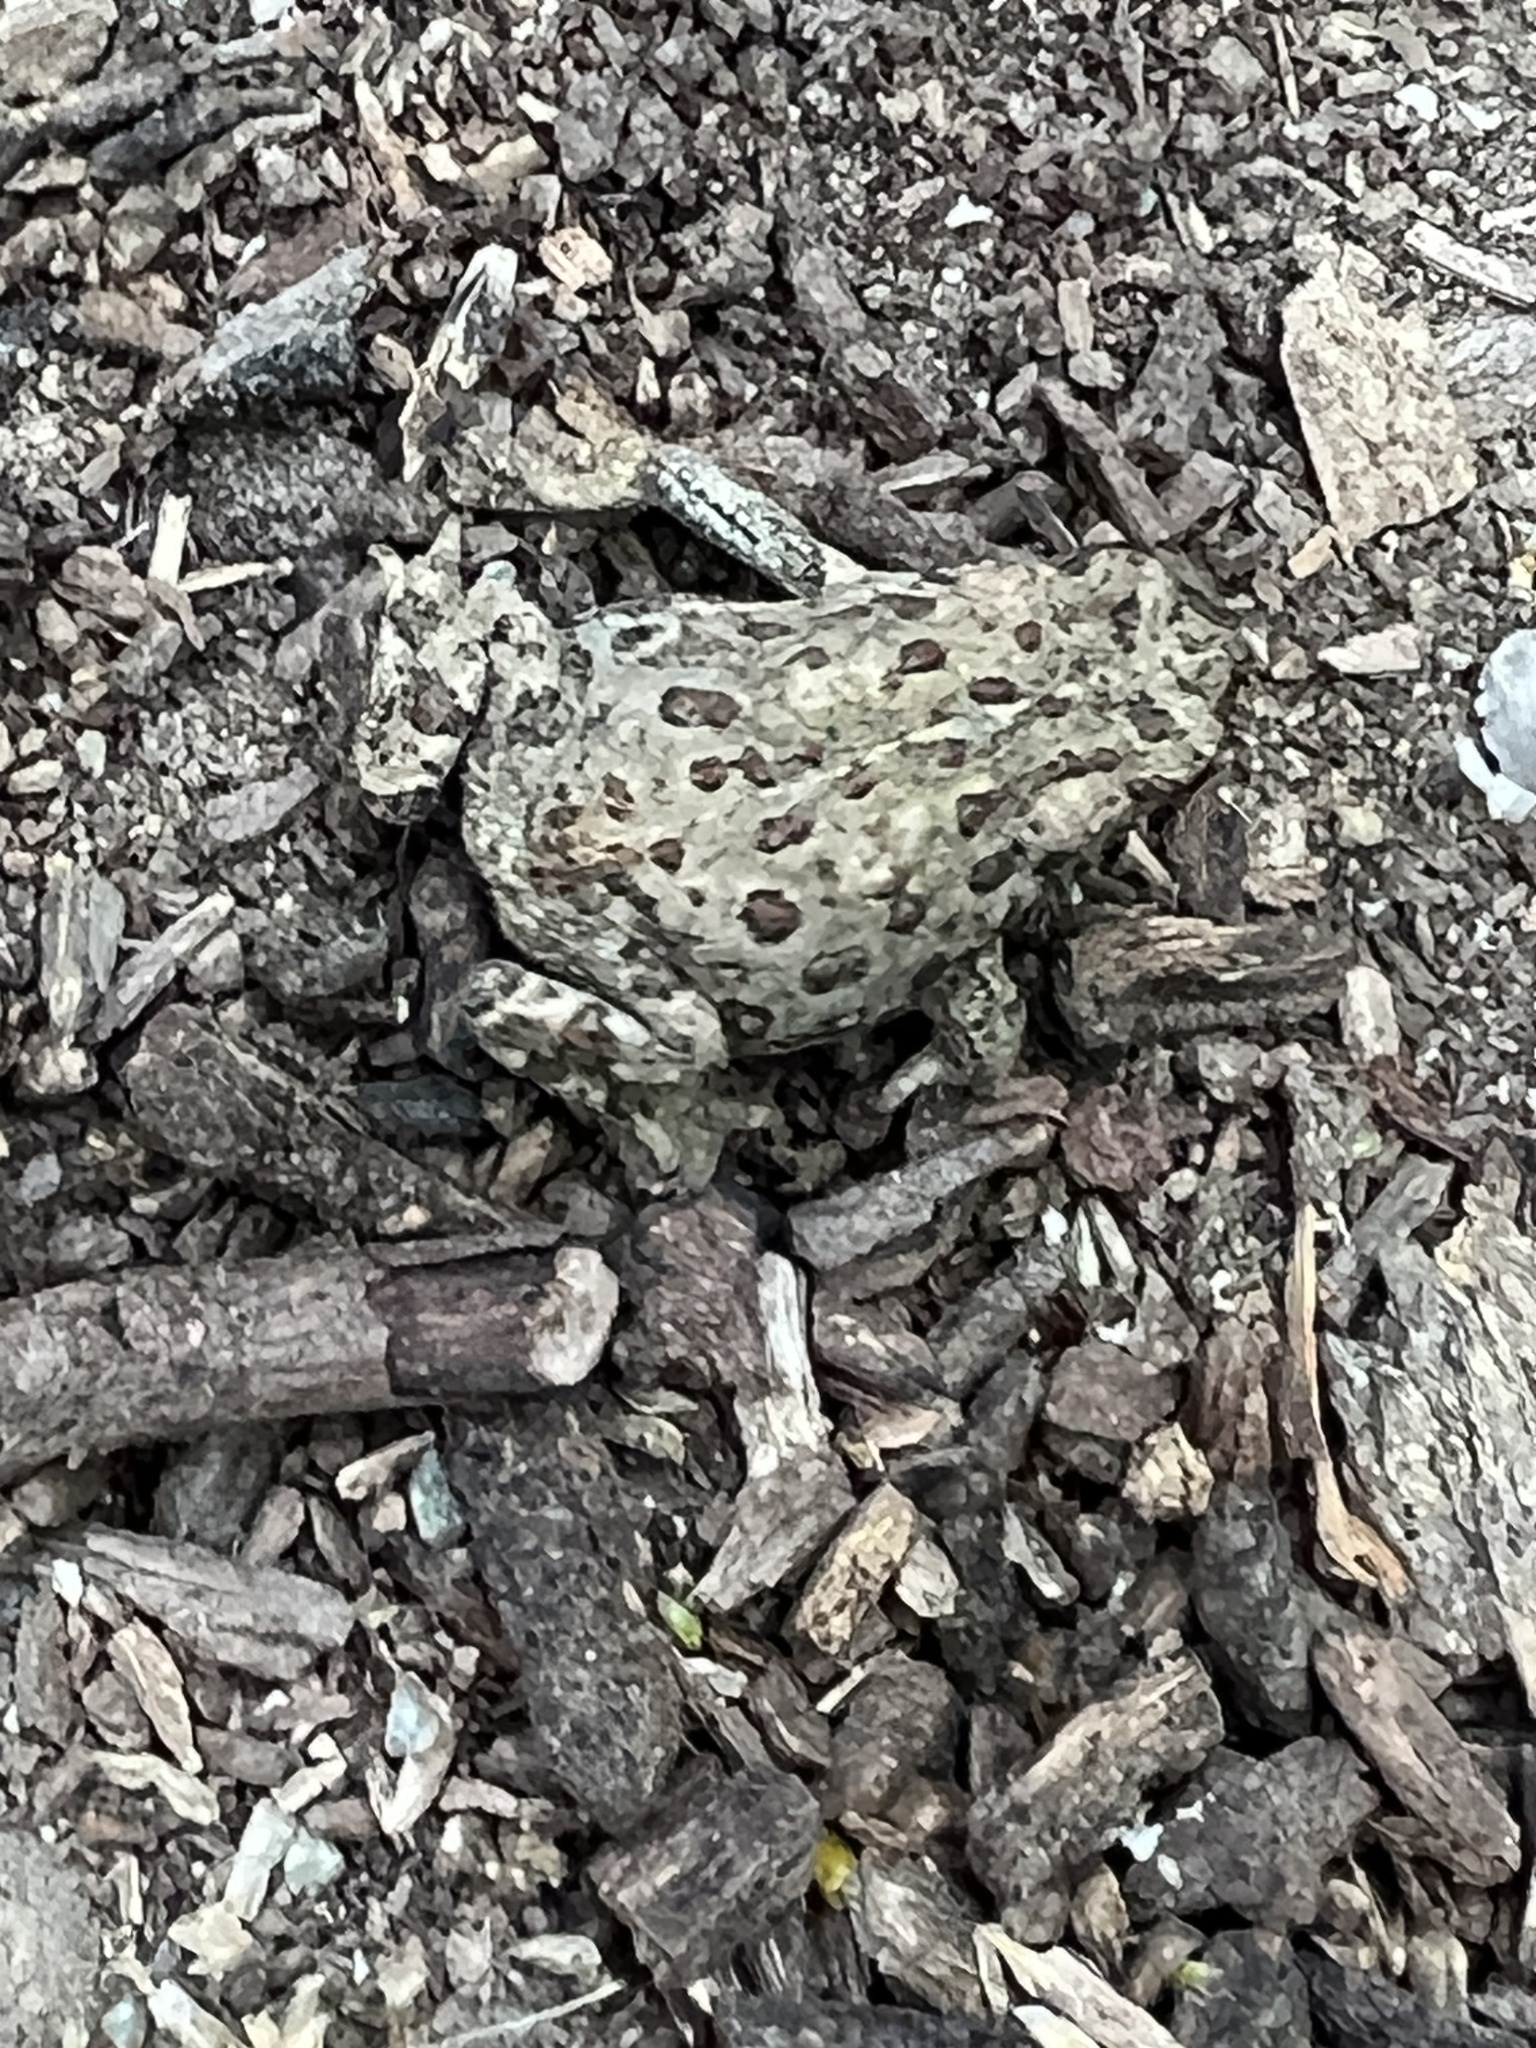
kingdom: Animalia
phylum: Chordata
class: Amphibia
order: Anura
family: Bufonidae
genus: Anaxyrus
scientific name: Anaxyrus boreas
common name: Western toad
